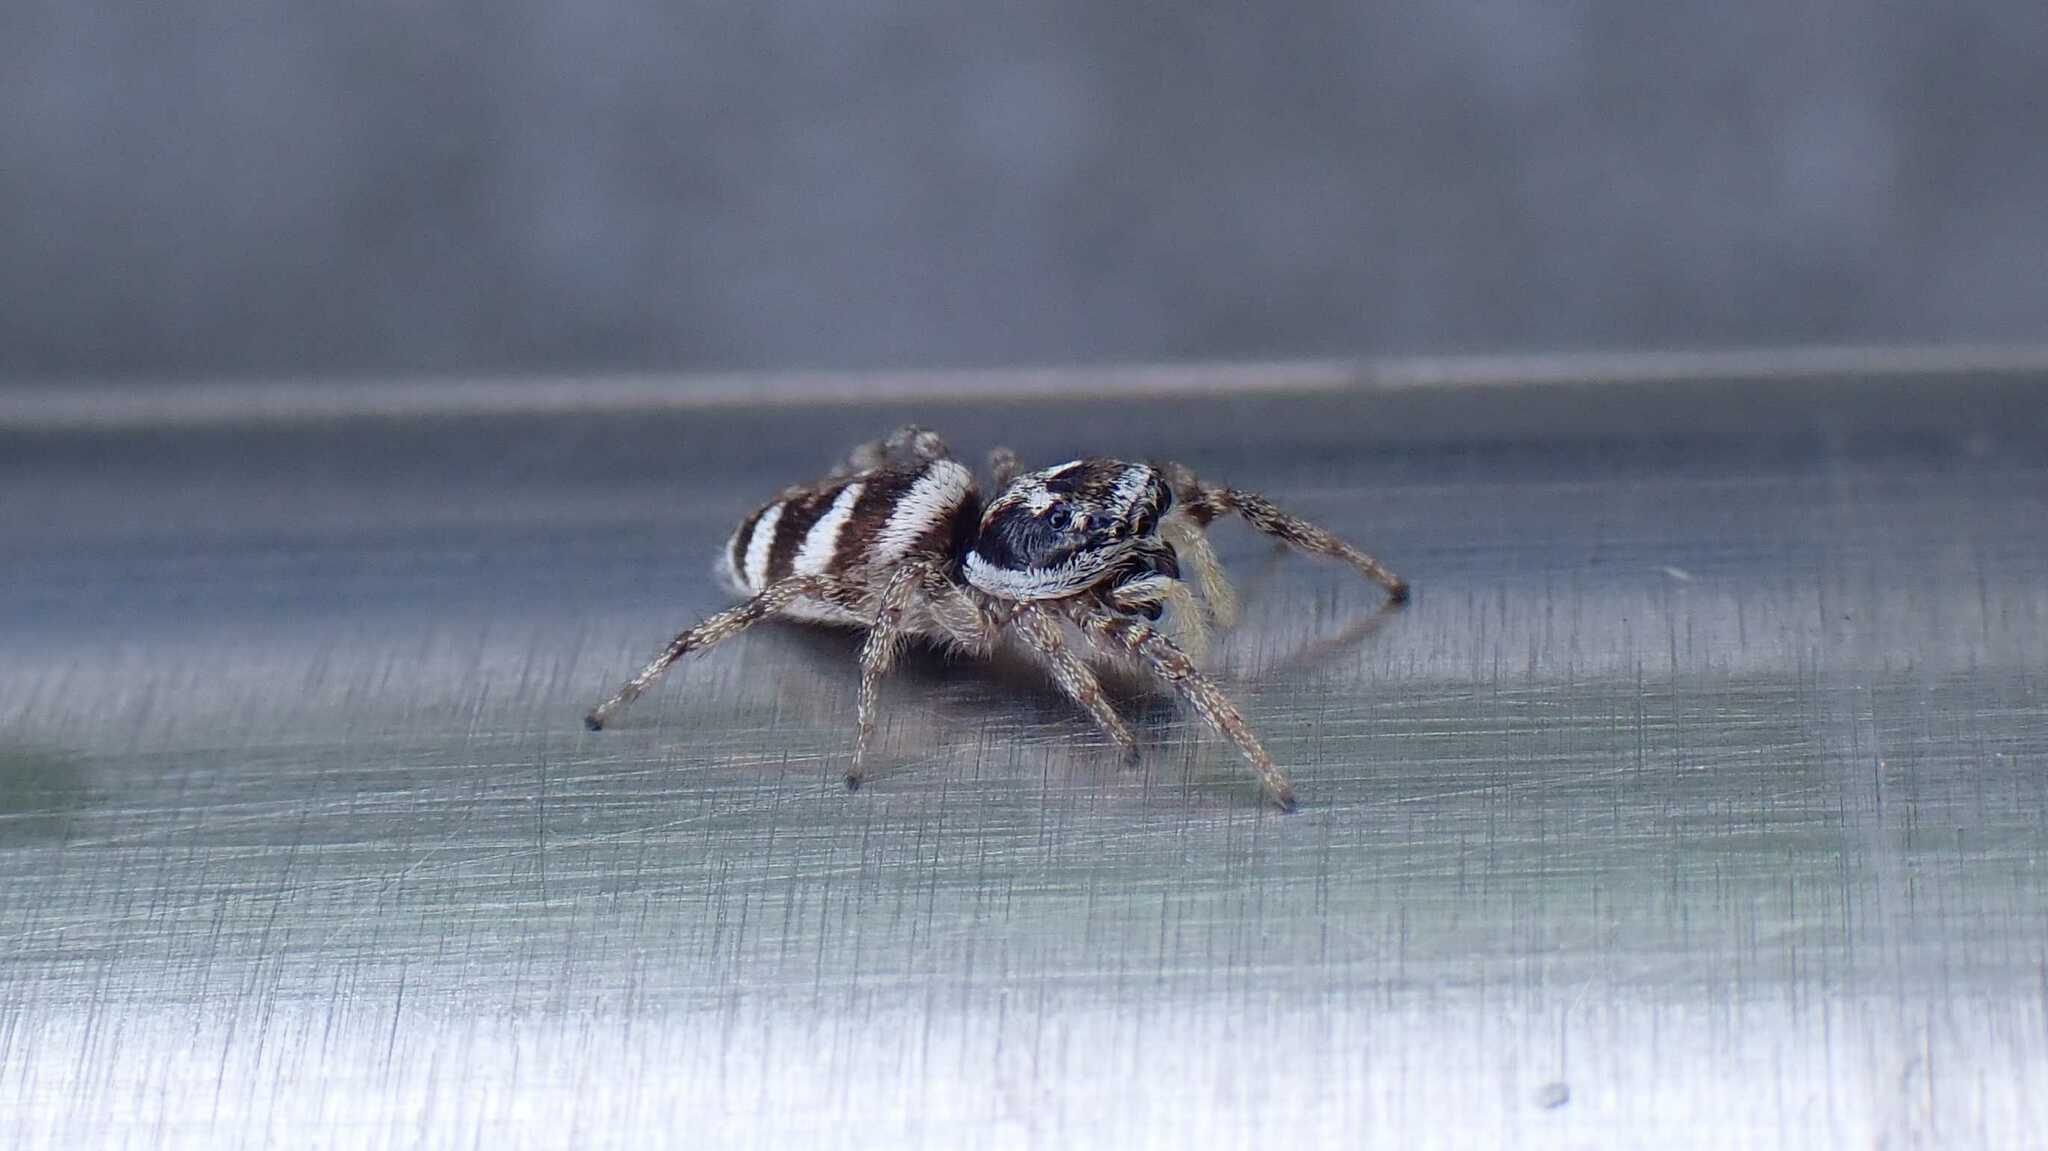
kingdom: Animalia
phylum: Arthropoda
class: Arachnida
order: Araneae
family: Salticidae
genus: Salticus
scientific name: Salticus scenicus
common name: Zebra jumper
